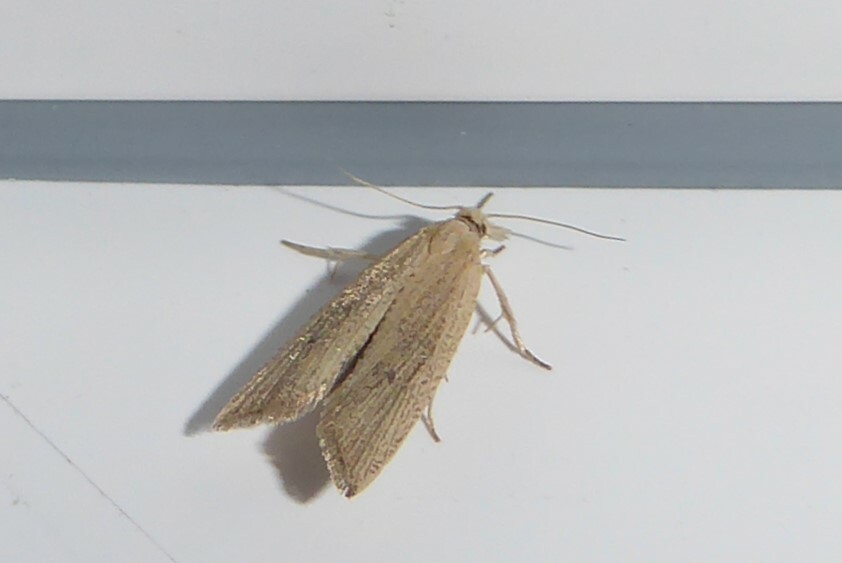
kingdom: Animalia
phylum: Arthropoda
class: Insecta
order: Lepidoptera
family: Tortricidae
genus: Bactra
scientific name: Bactra noteraula
